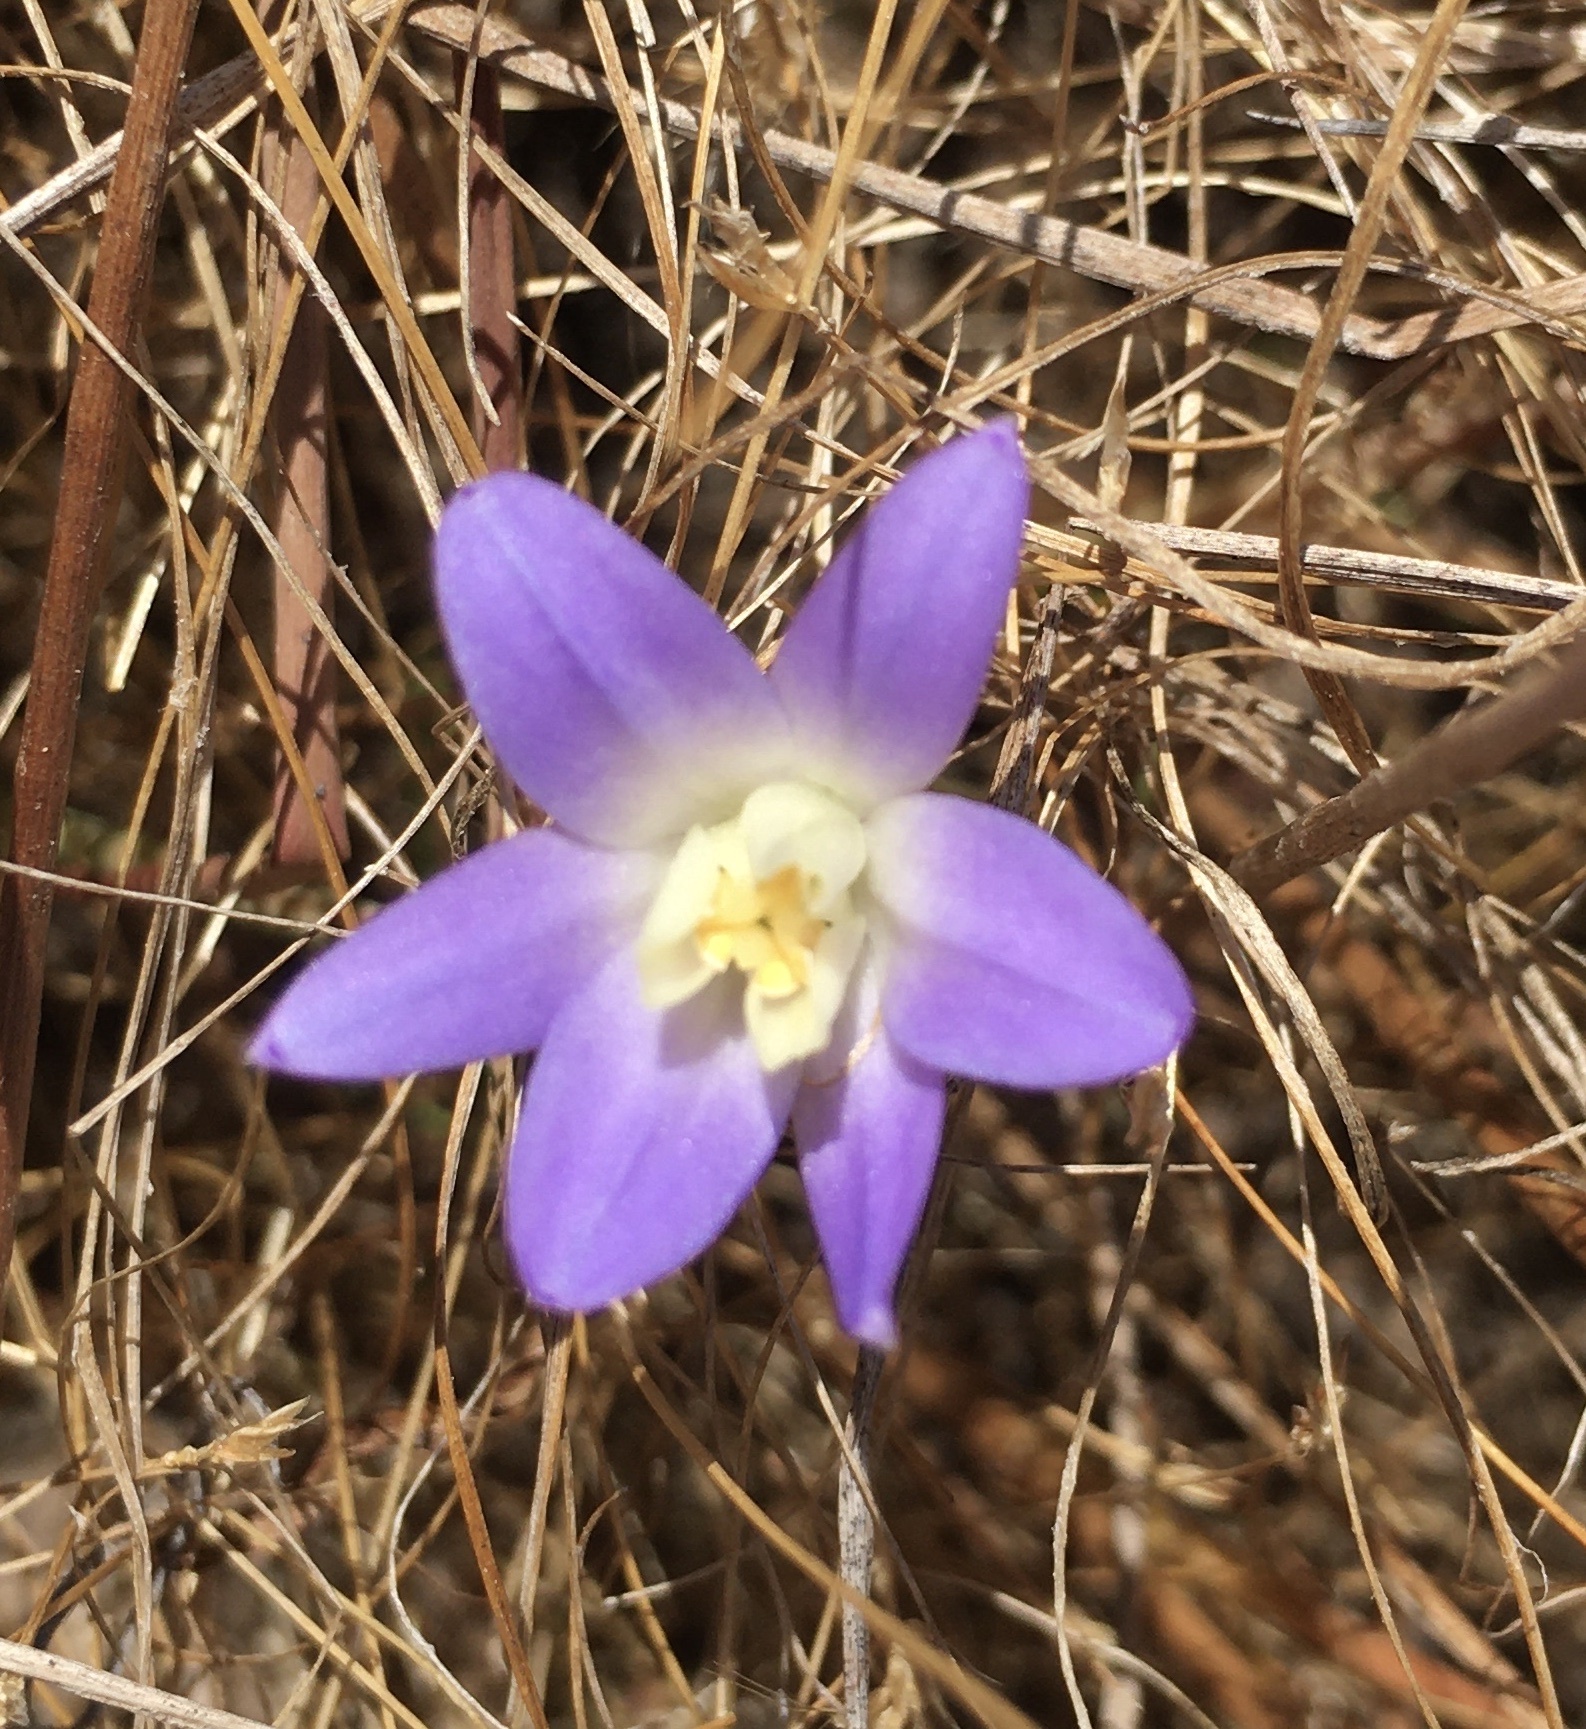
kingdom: Plantae
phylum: Tracheophyta
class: Liliopsida
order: Asparagales
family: Asparagaceae
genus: Brodiaea
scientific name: Brodiaea terrestris
